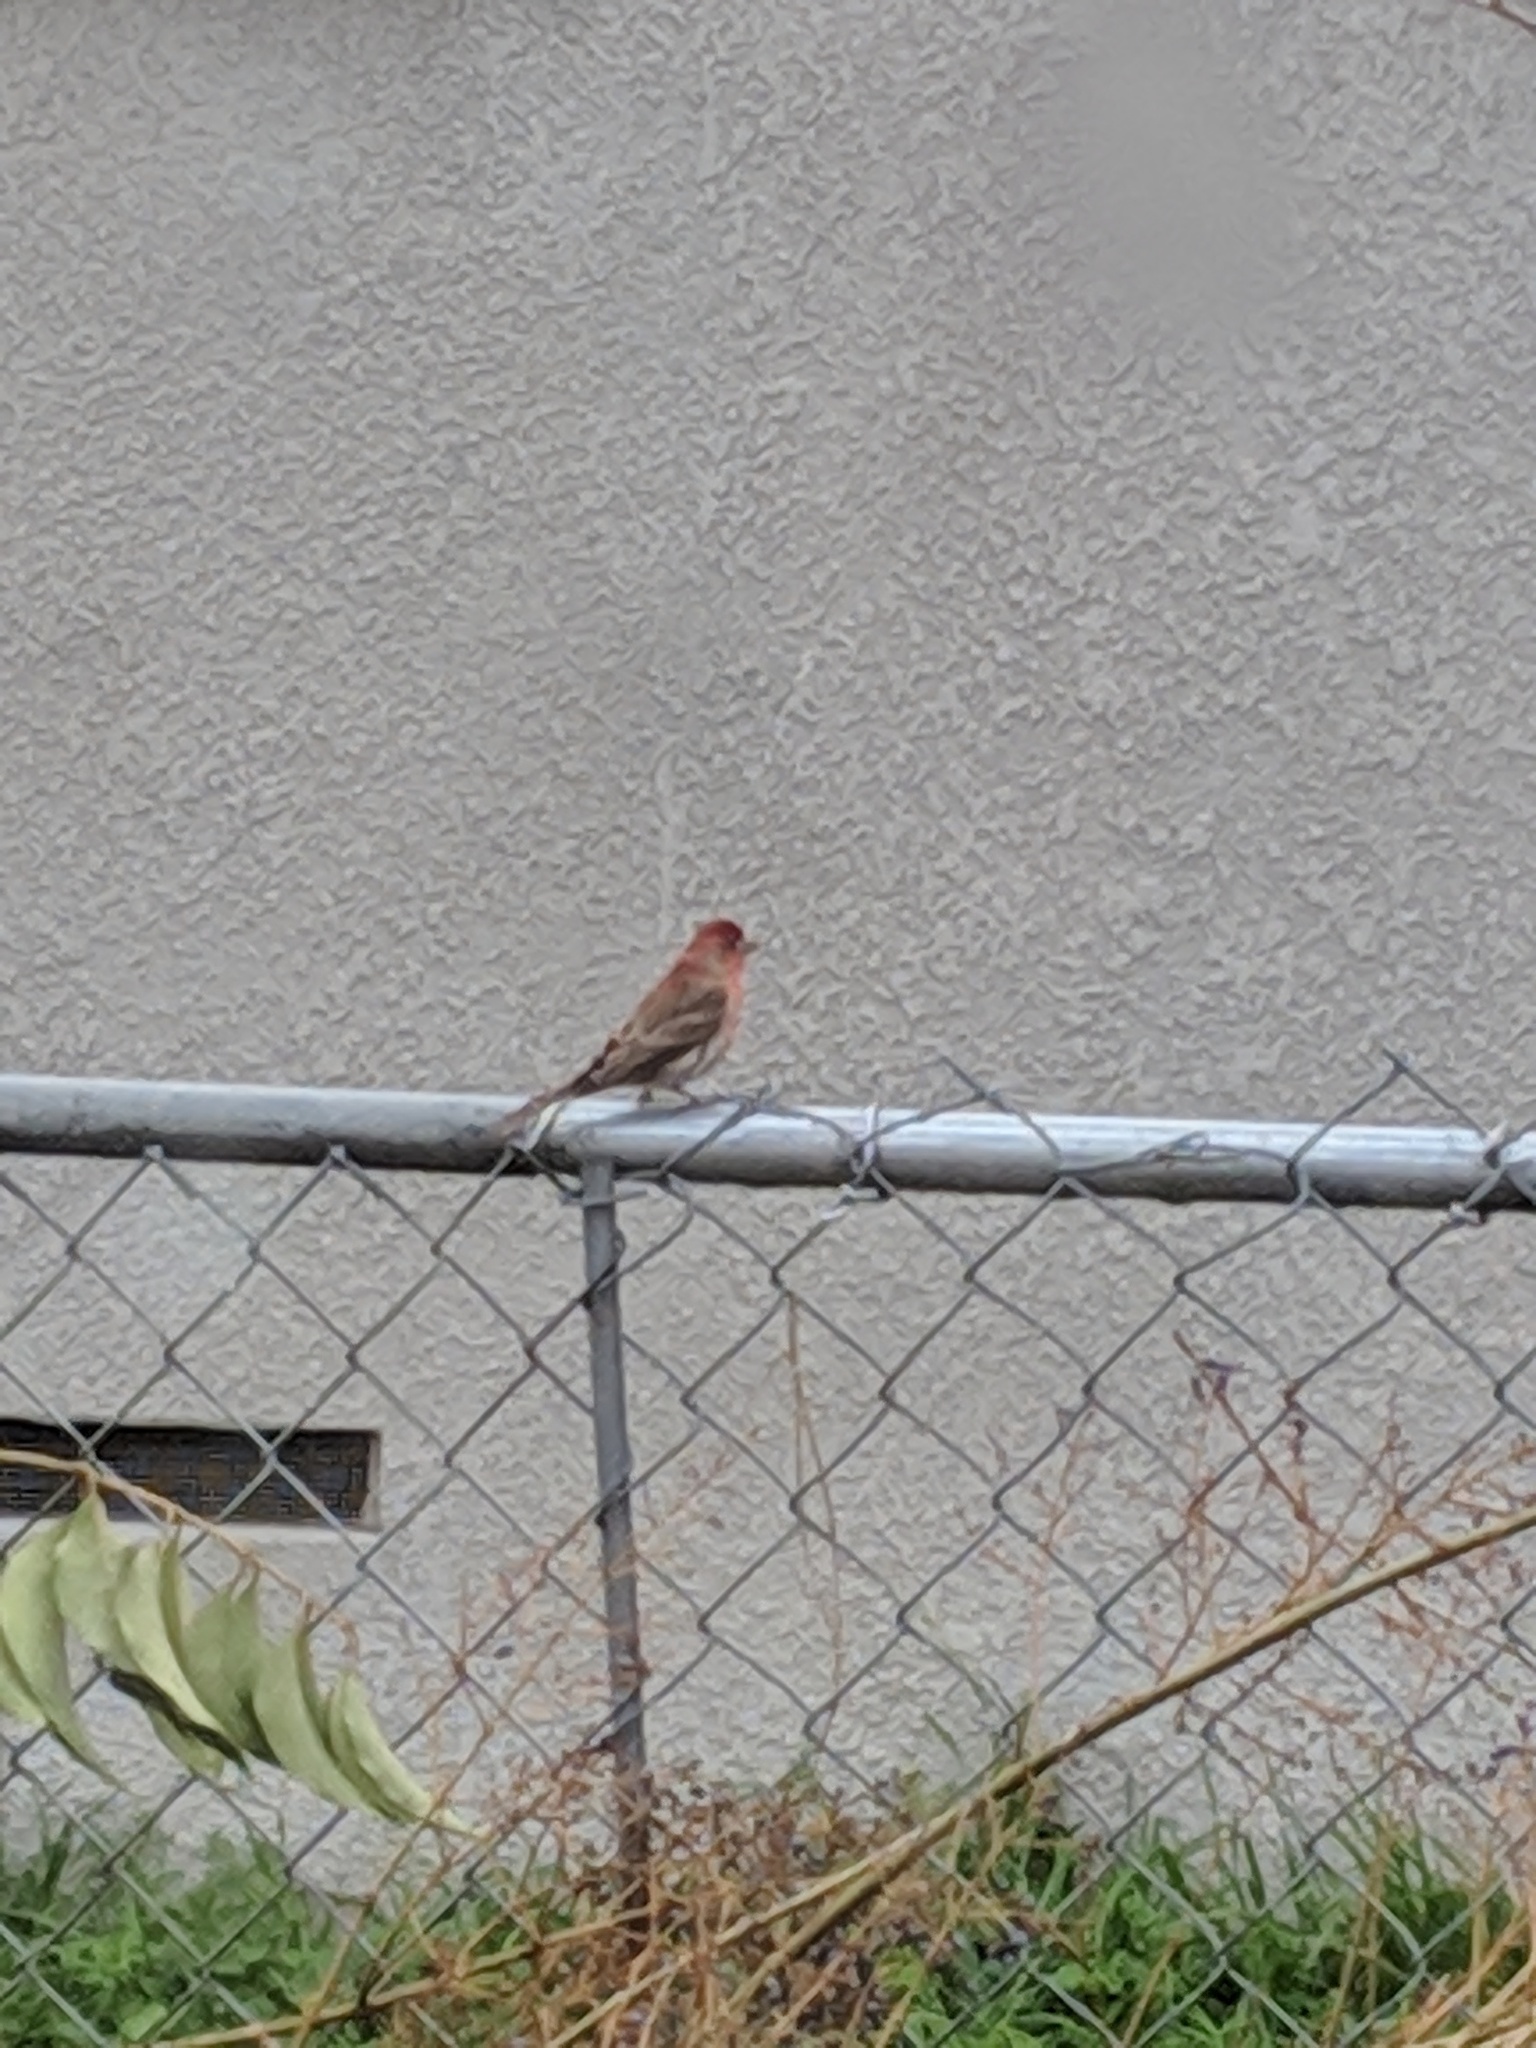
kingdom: Animalia
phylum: Chordata
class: Aves
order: Passeriformes
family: Fringillidae
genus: Haemorhous
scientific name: Haemorhous mexicanus
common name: House finch
